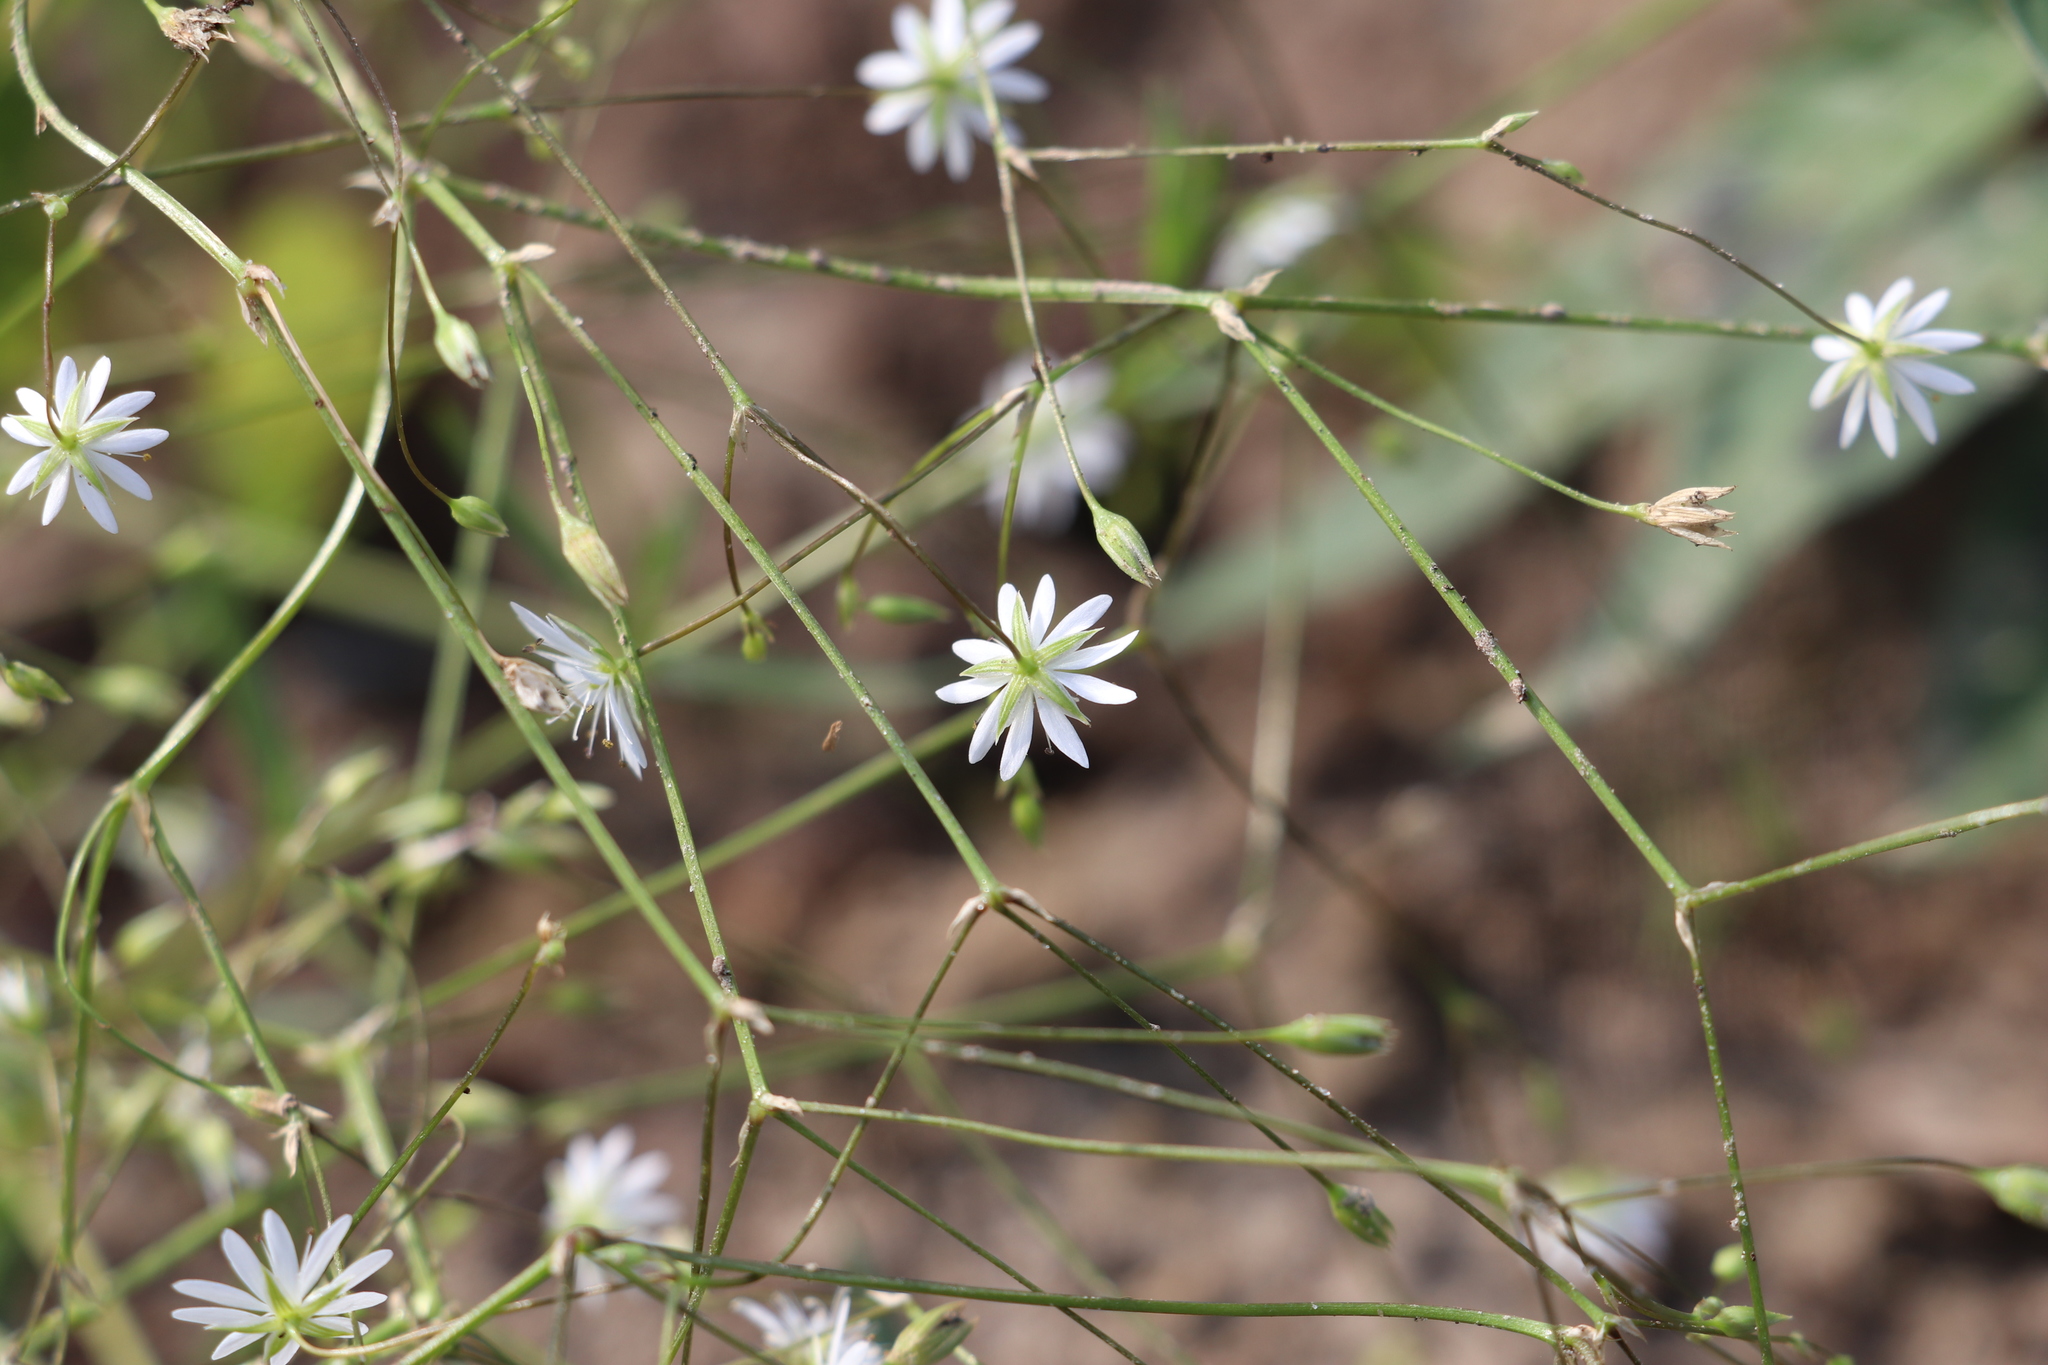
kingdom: Plantae
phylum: Tracheophyta
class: Magnoliopsida
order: Caryophyllales
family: Caryophyllaceae
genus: Stellaria
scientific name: Stellaria graminea
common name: Grass-like starwort
